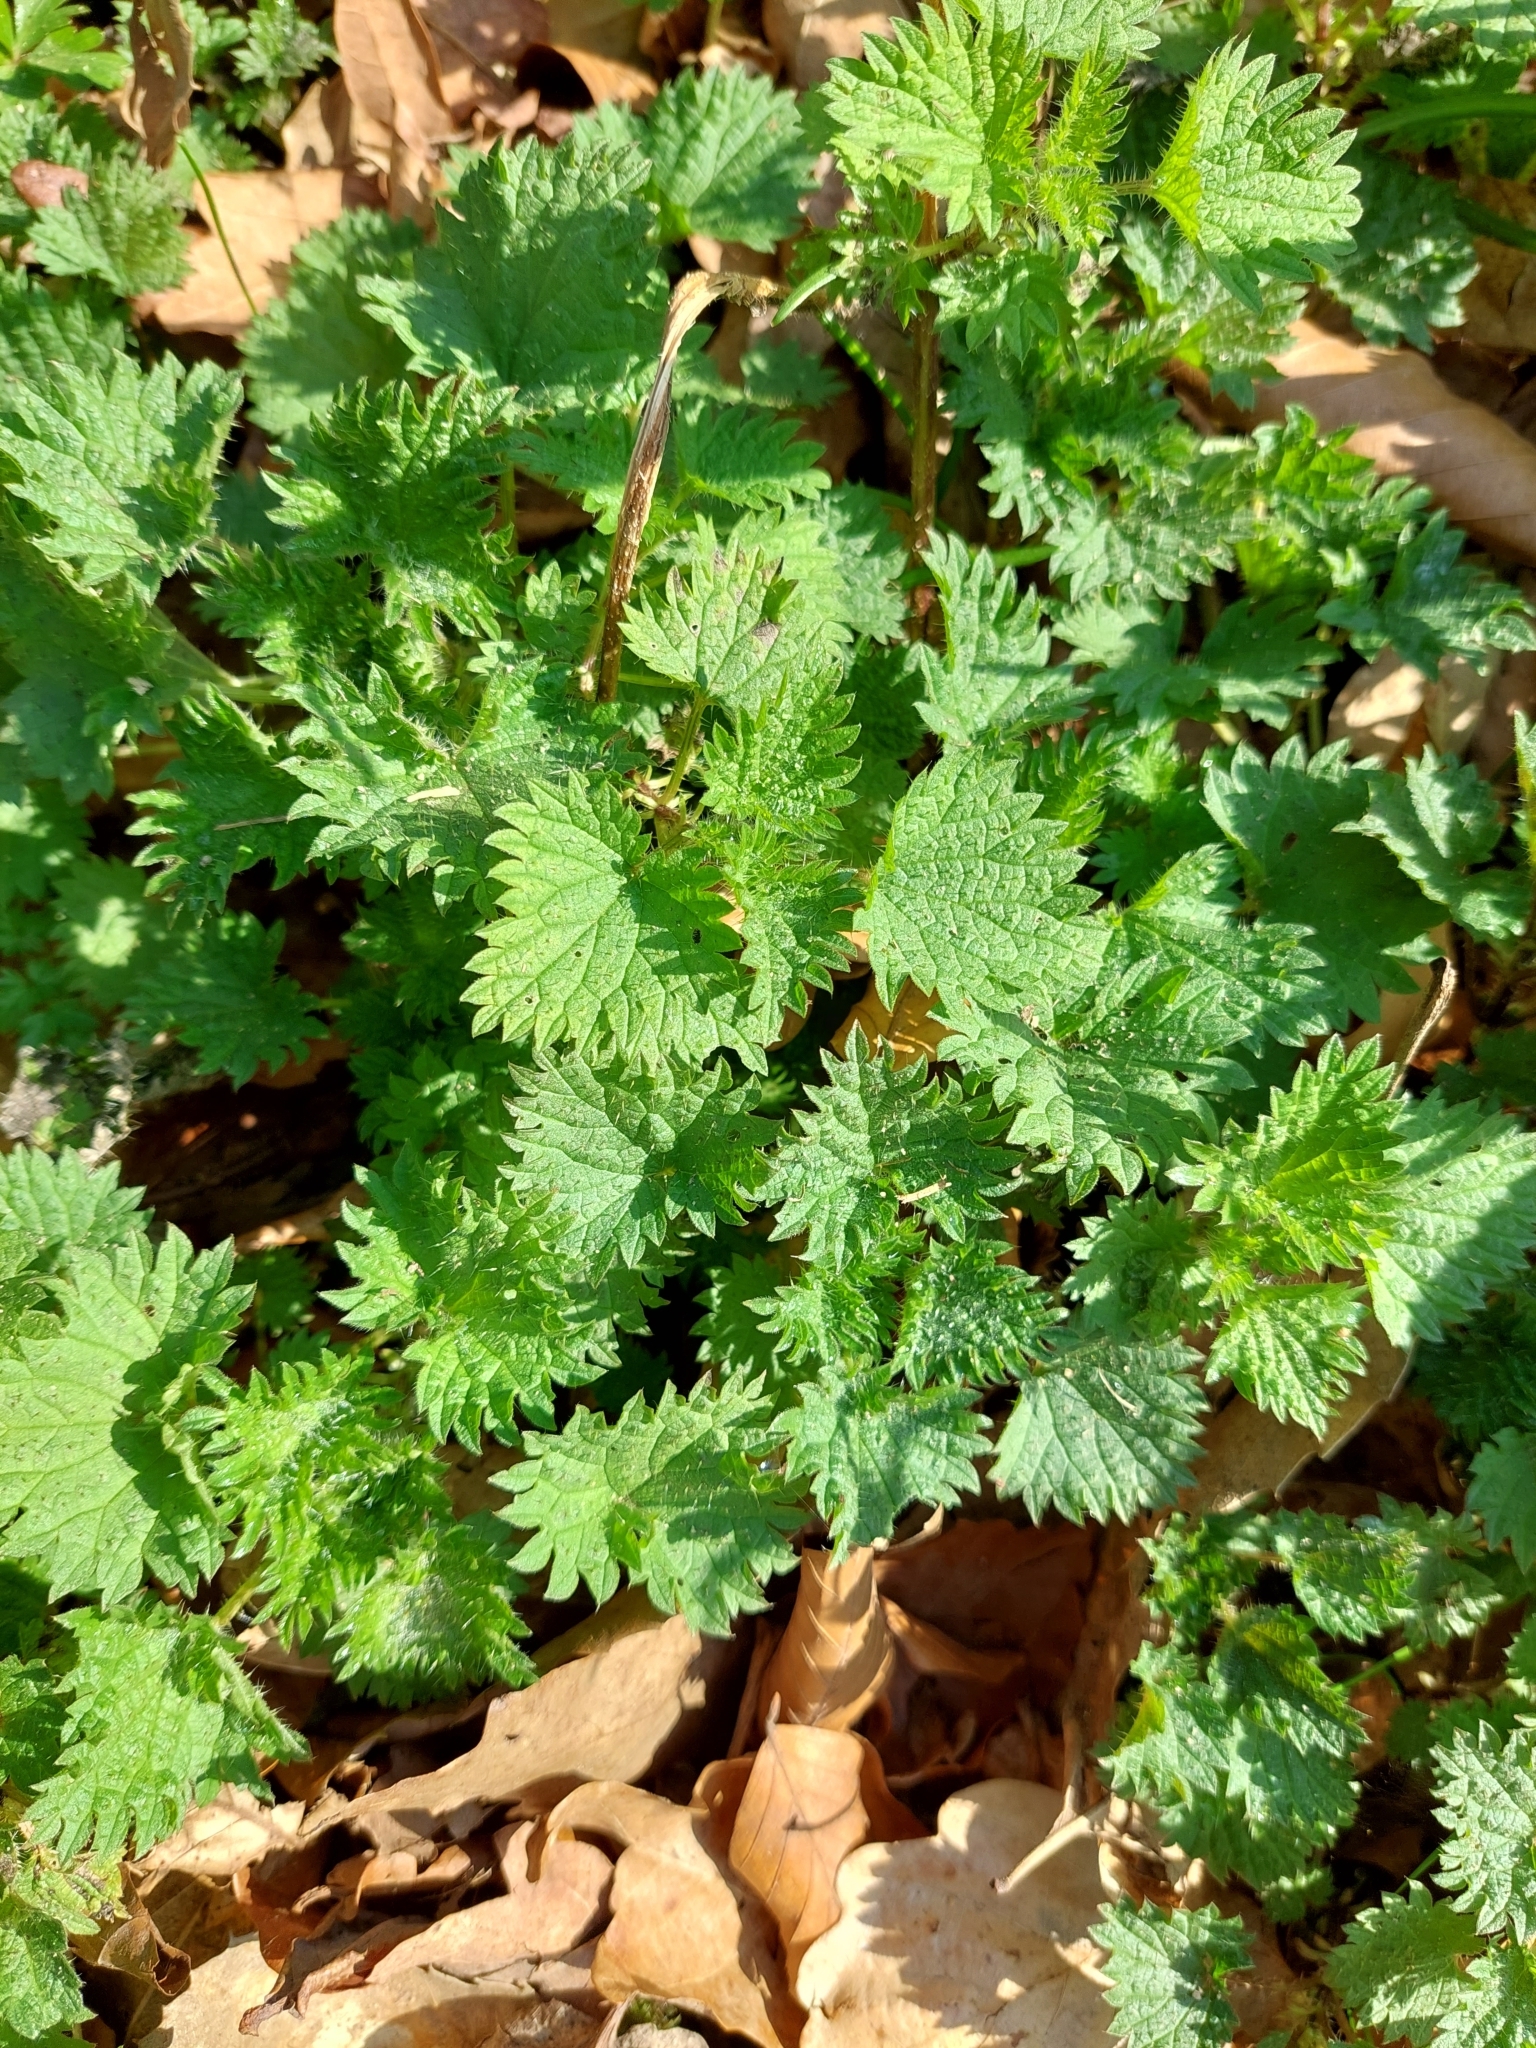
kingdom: Plantae
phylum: Tracheophyta
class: Magnoliopsida
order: Rosales
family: Urticaceae
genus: Urtica
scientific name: Urtica dioica
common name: Common nettle
